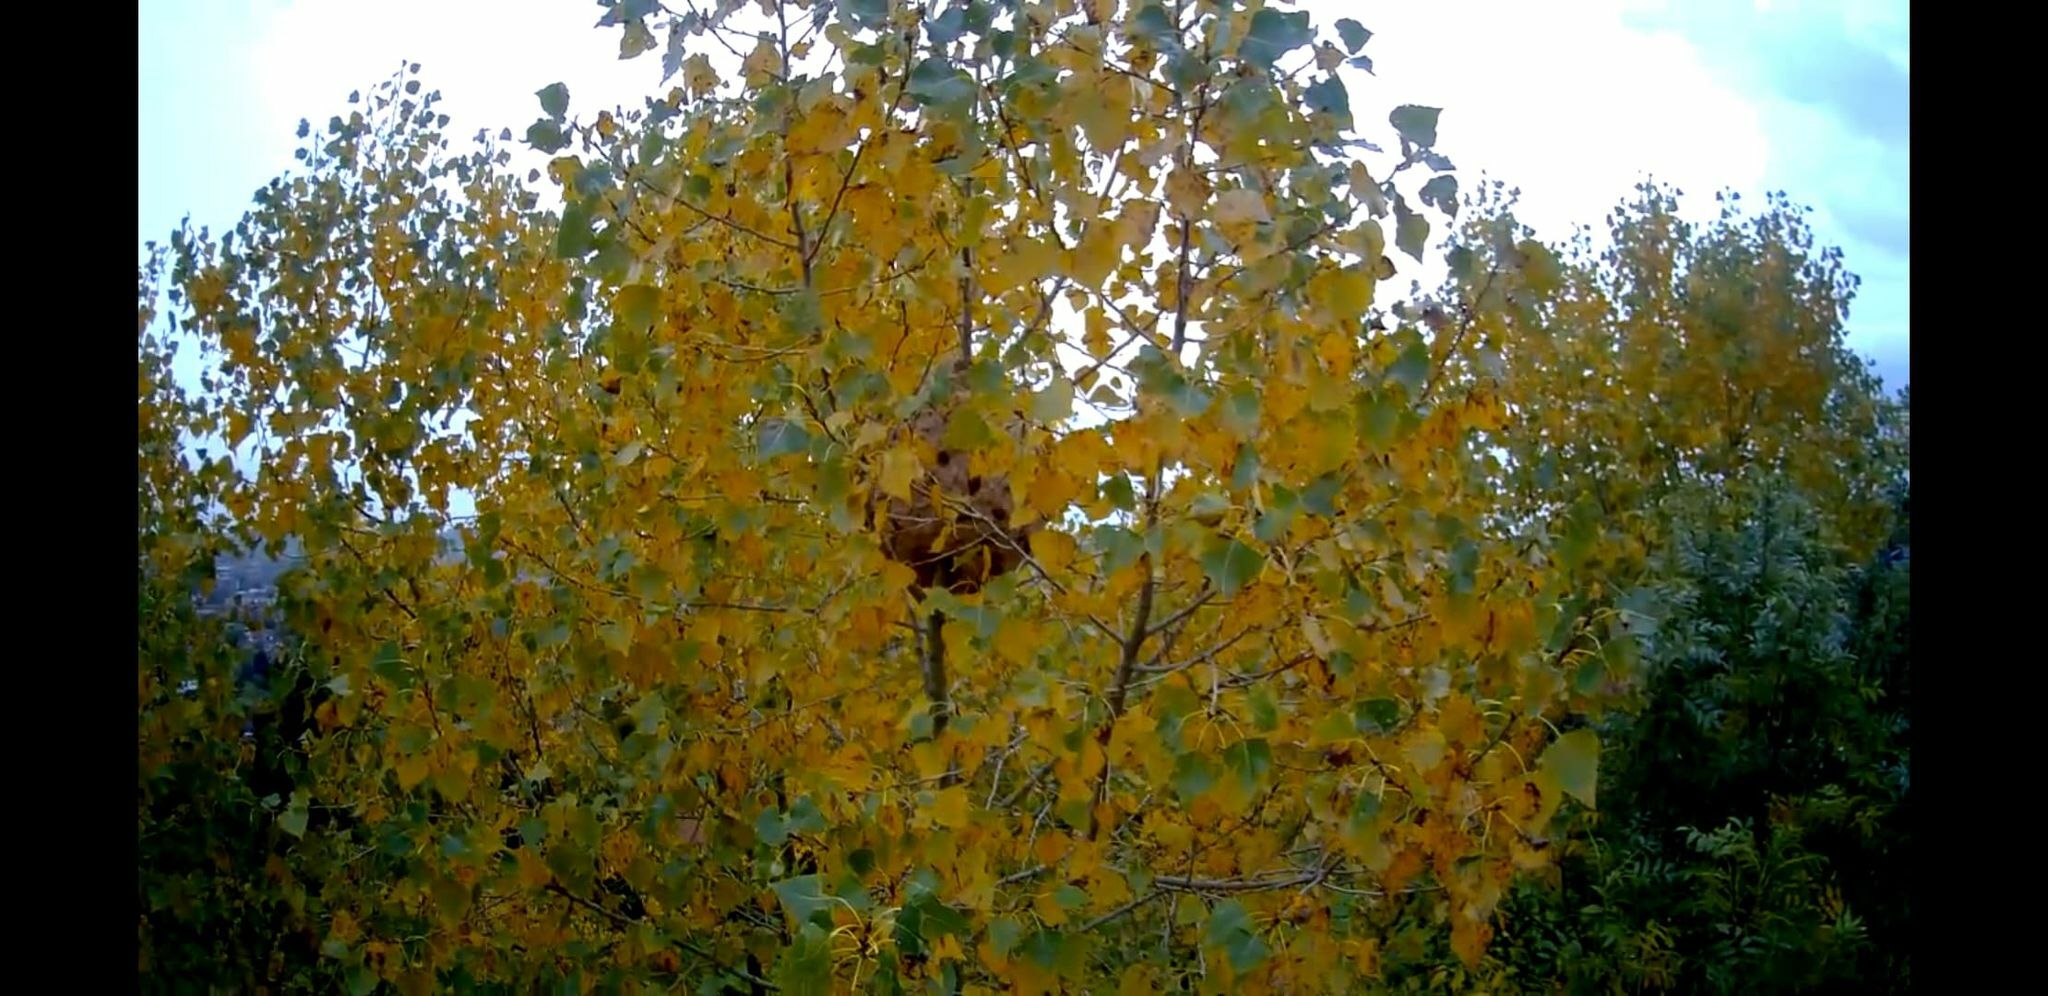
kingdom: Animalia
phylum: Arthropoda
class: Insecta
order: Hymenoptera
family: Vespidae
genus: Vespa
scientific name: Vespa velutina
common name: Asian hornet
